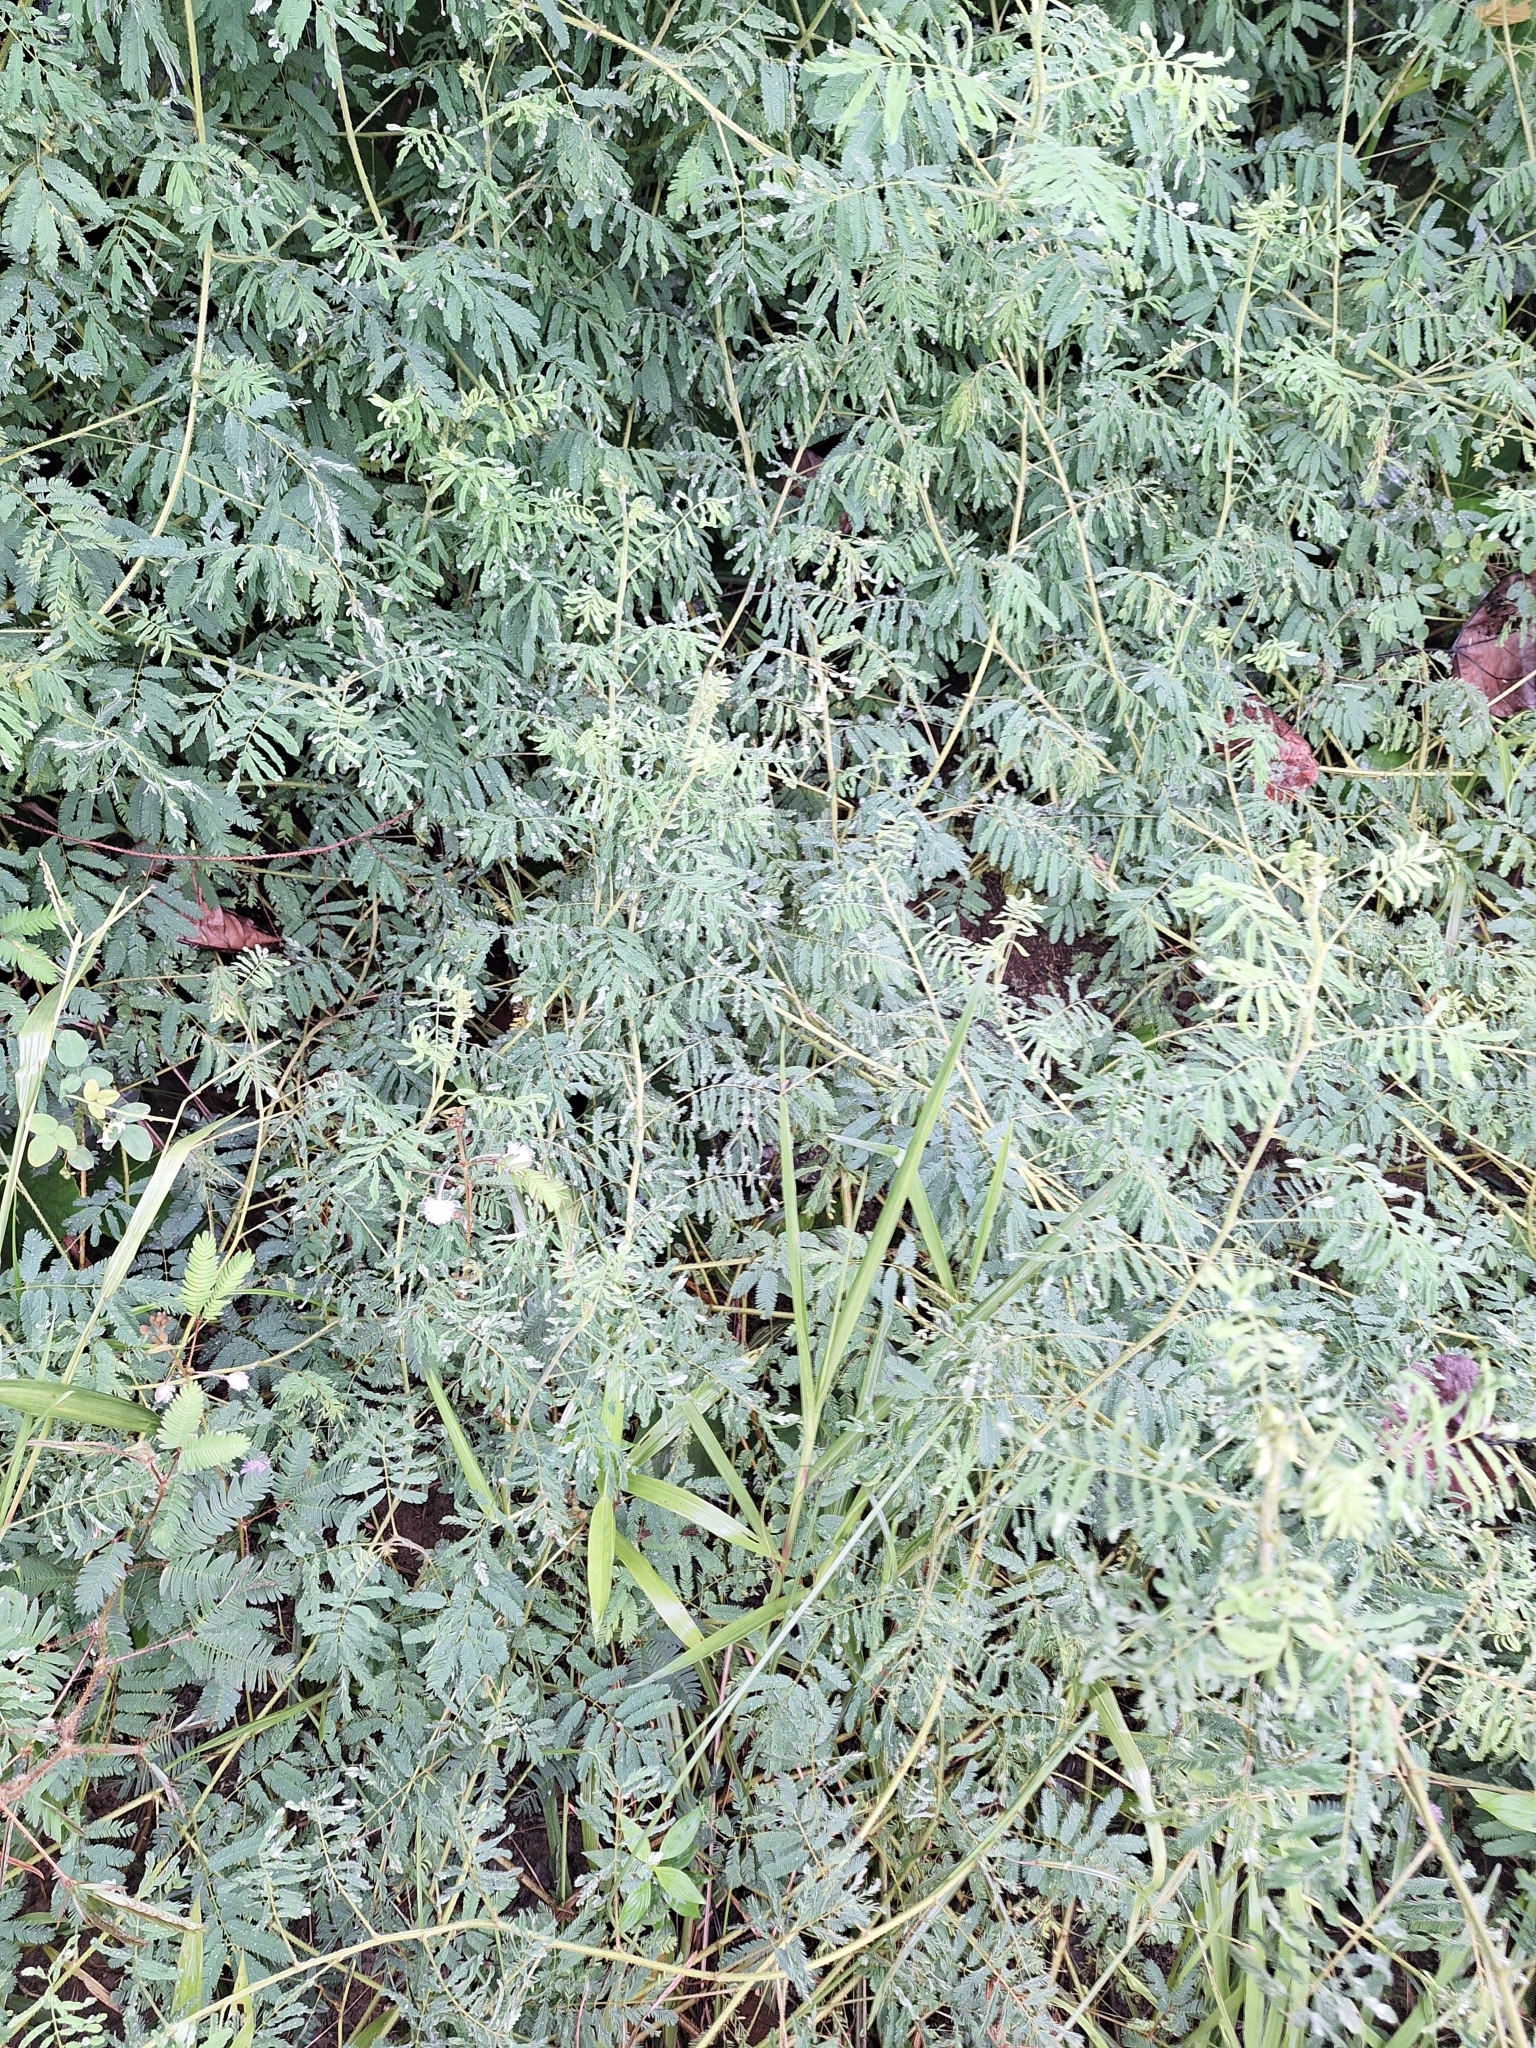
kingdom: Plantae
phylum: Tracheophyta
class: Magnoliopsida
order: Fabales
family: Fabaceae
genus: Mimosa
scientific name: Mimosa pudica
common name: Sensitive plant
